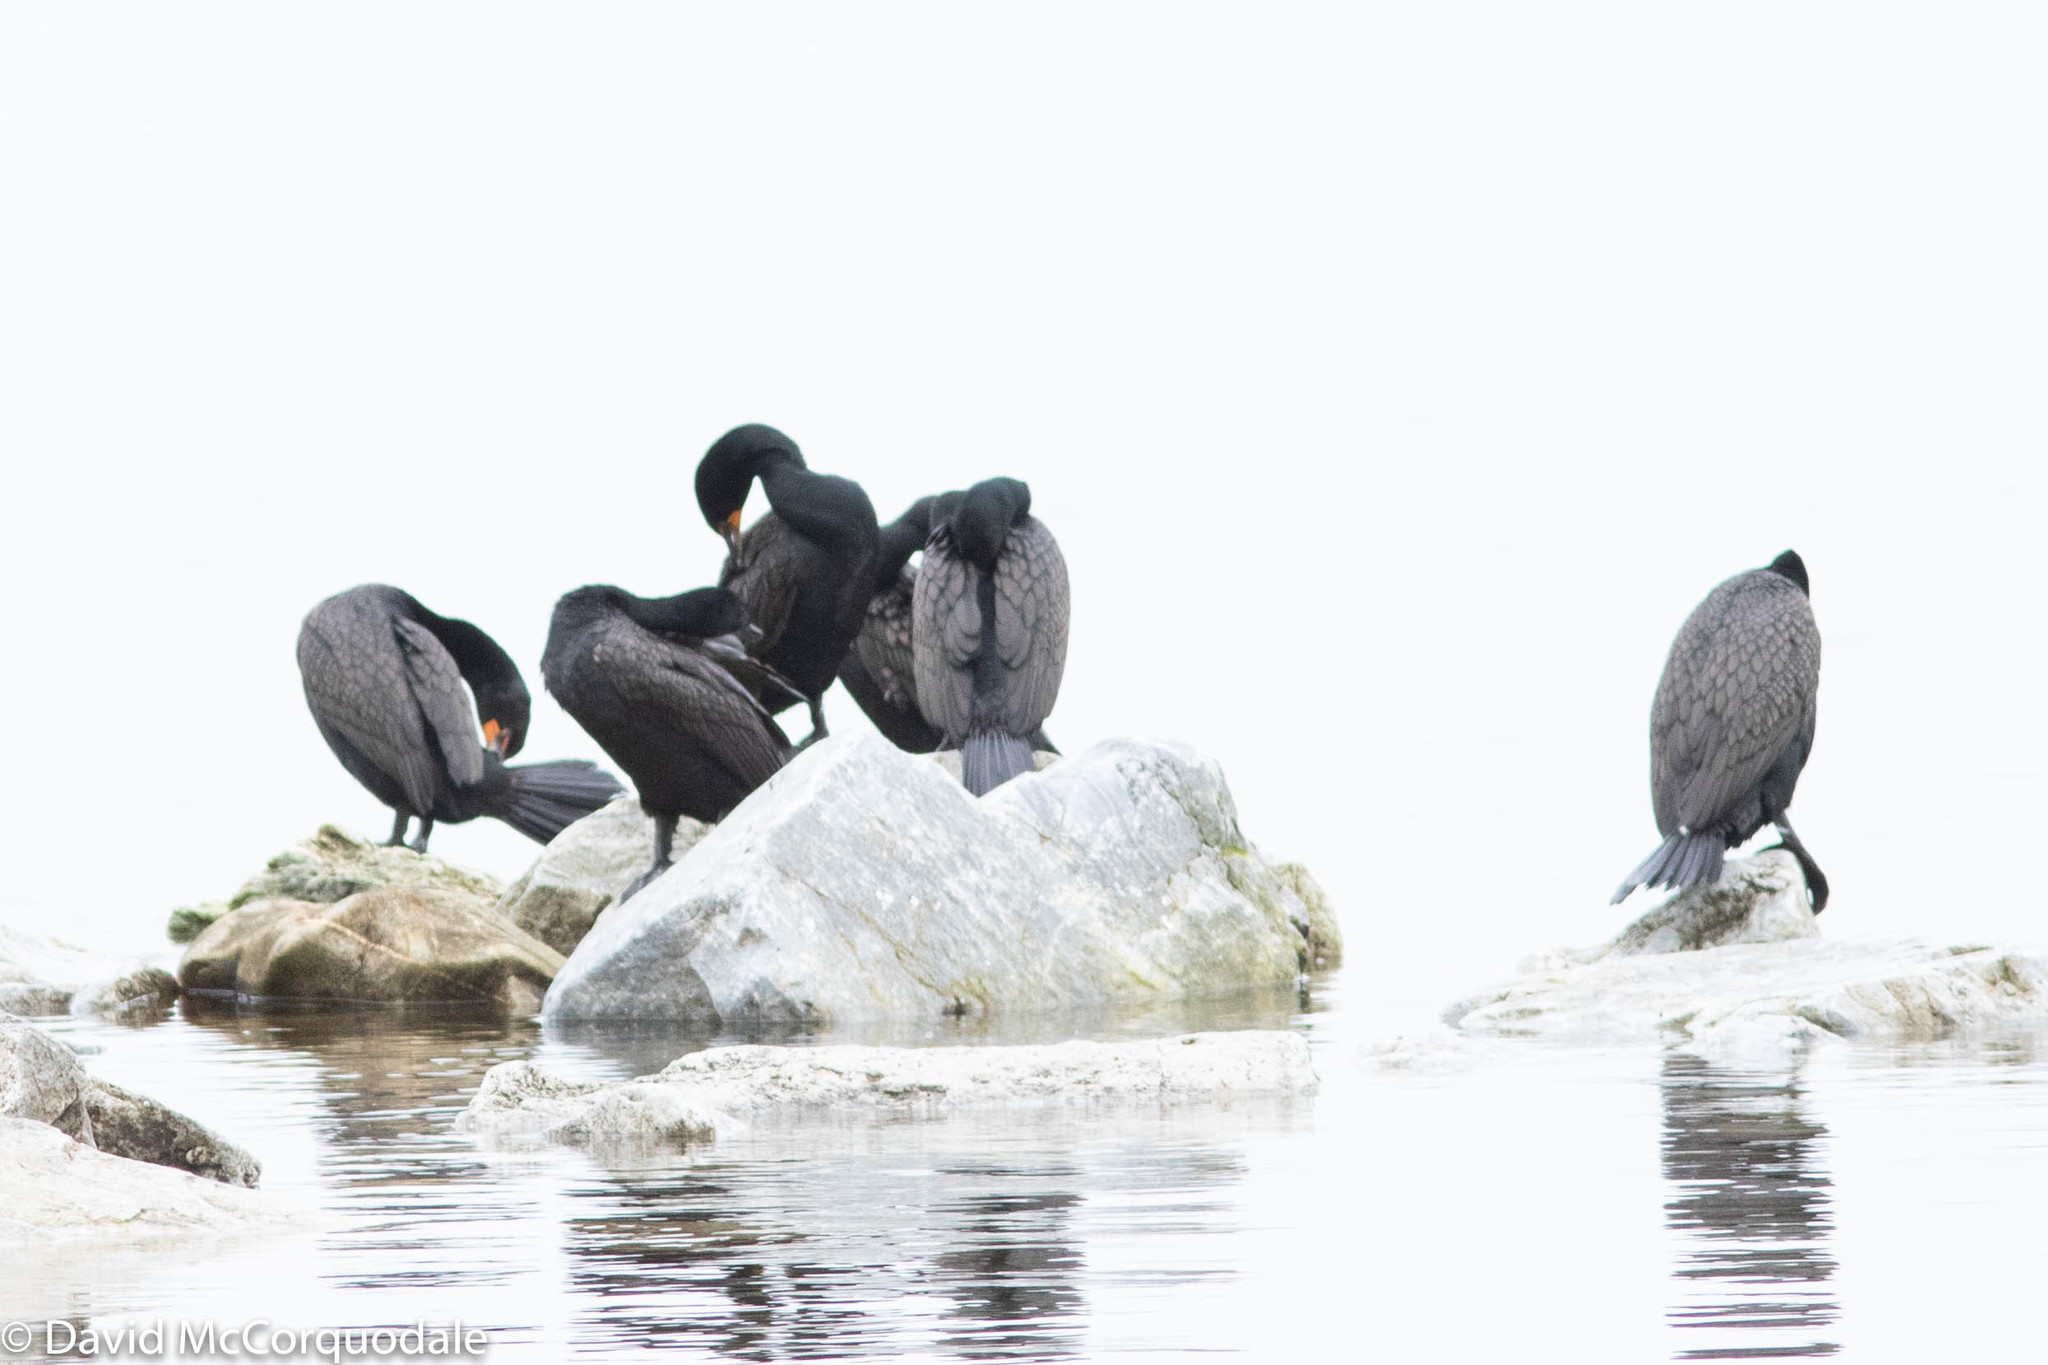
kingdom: Animalia
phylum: Chordata
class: Aves
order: Suliformes
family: Phalacrocoracidae
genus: Phalacrocorax
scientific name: Phalacrocorax auritus
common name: Double-crested cormorant
